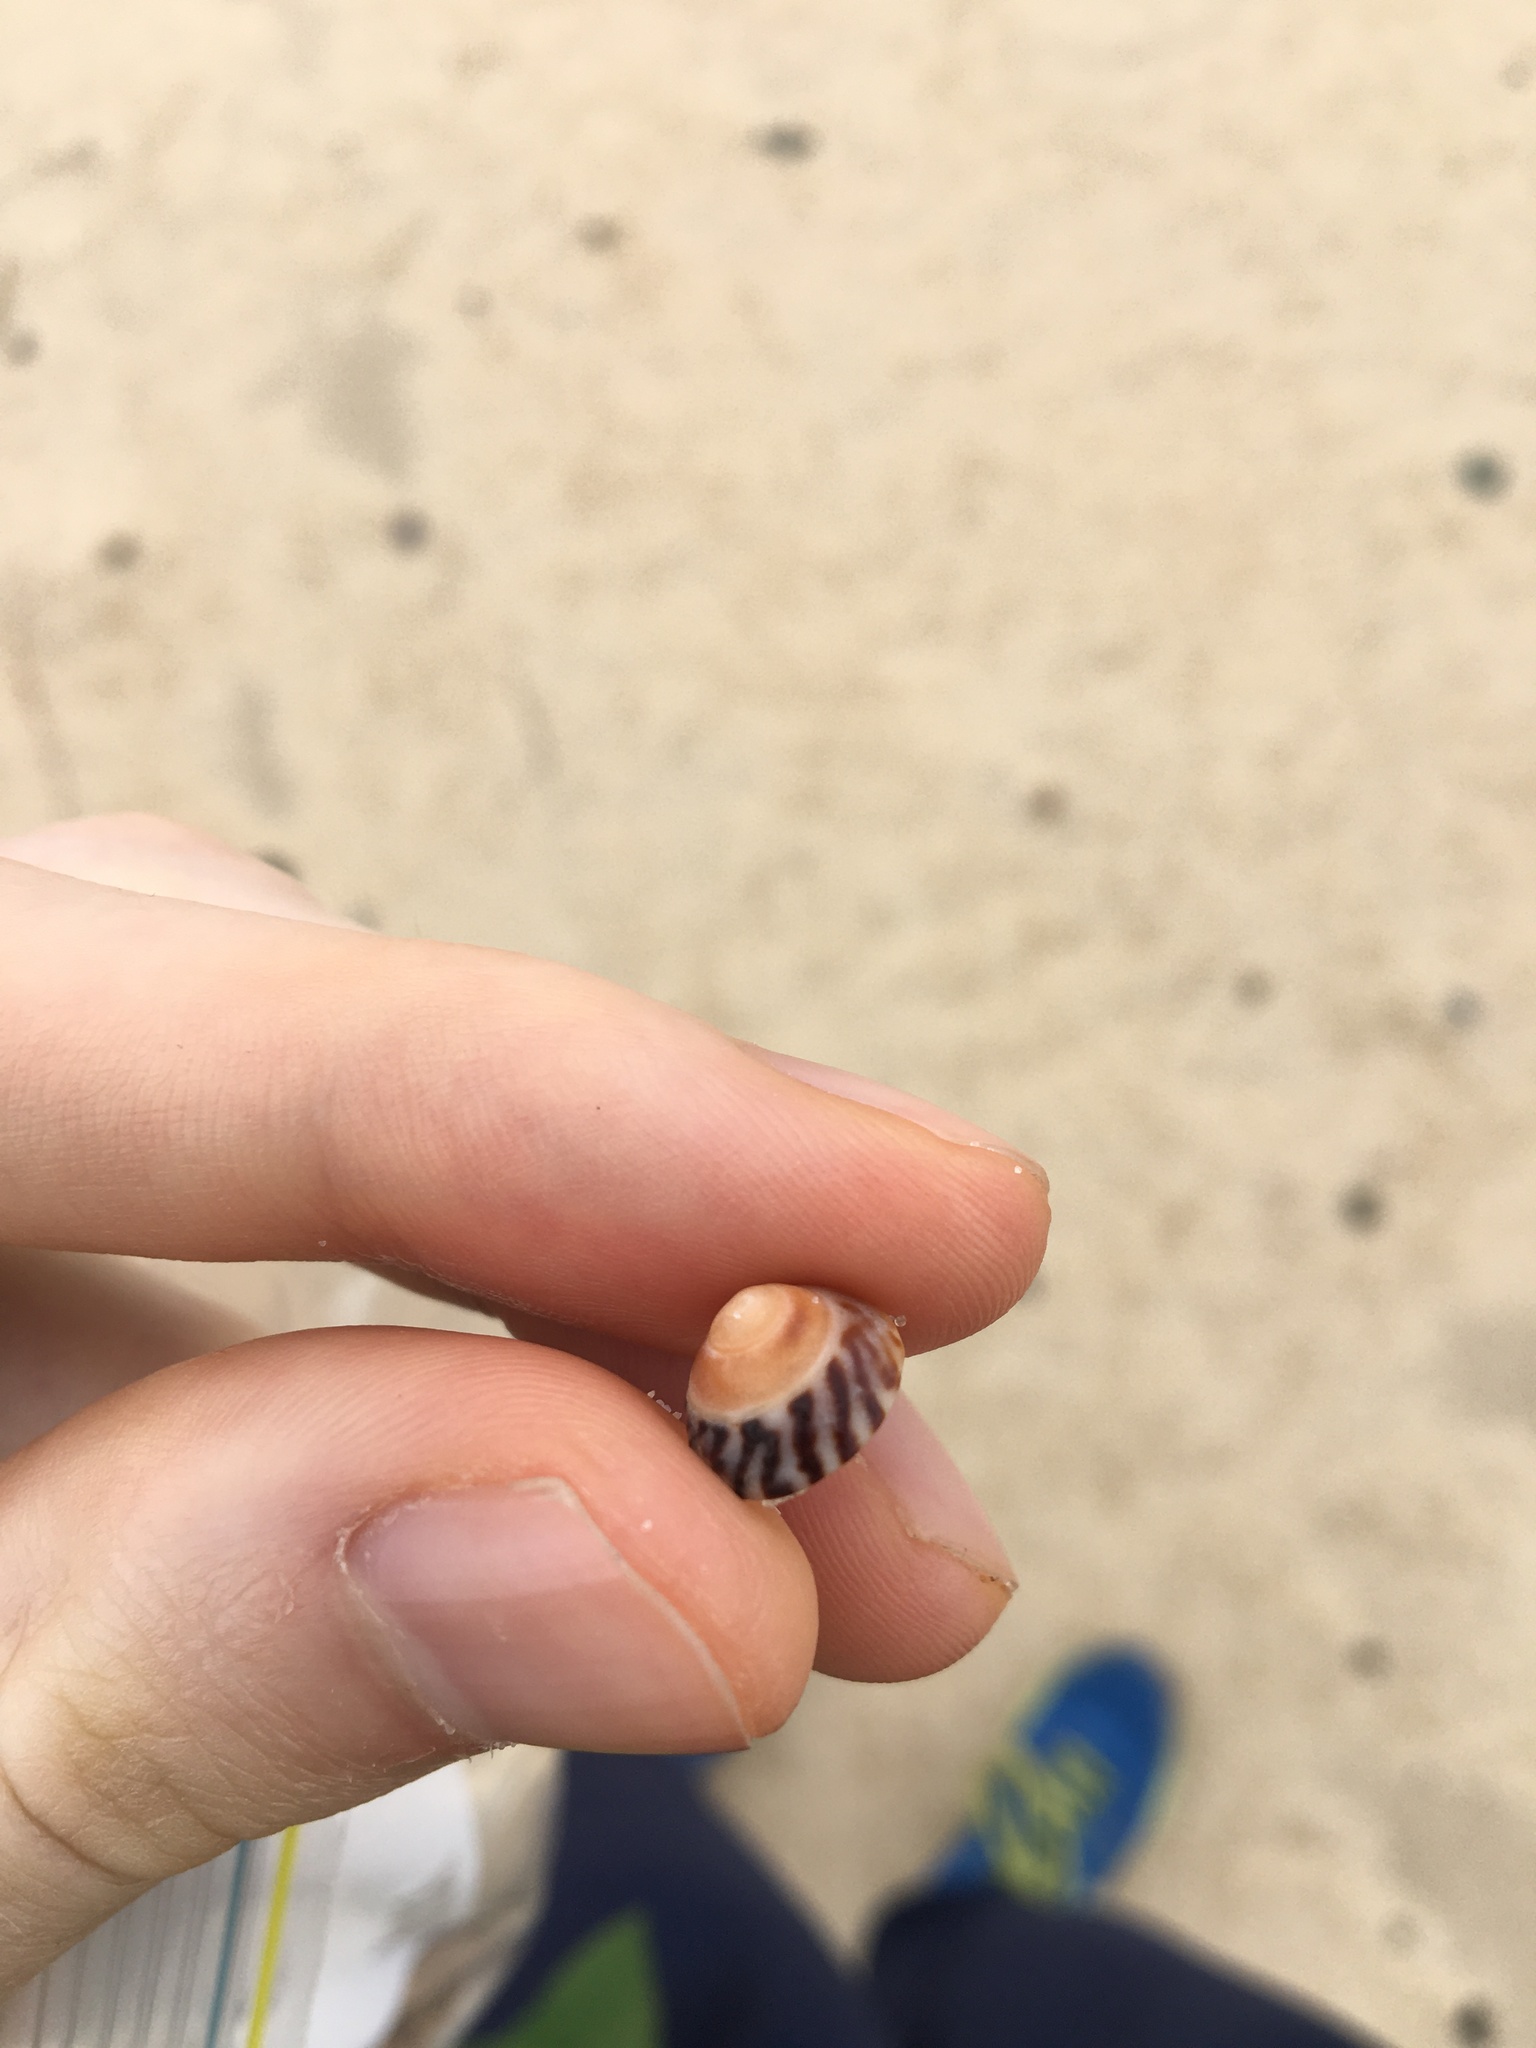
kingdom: Animalia
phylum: Mollusca
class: Gastropoda
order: Littorinimorpha
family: Littorinidae
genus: Bembicium
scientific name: Bembicium nanum
